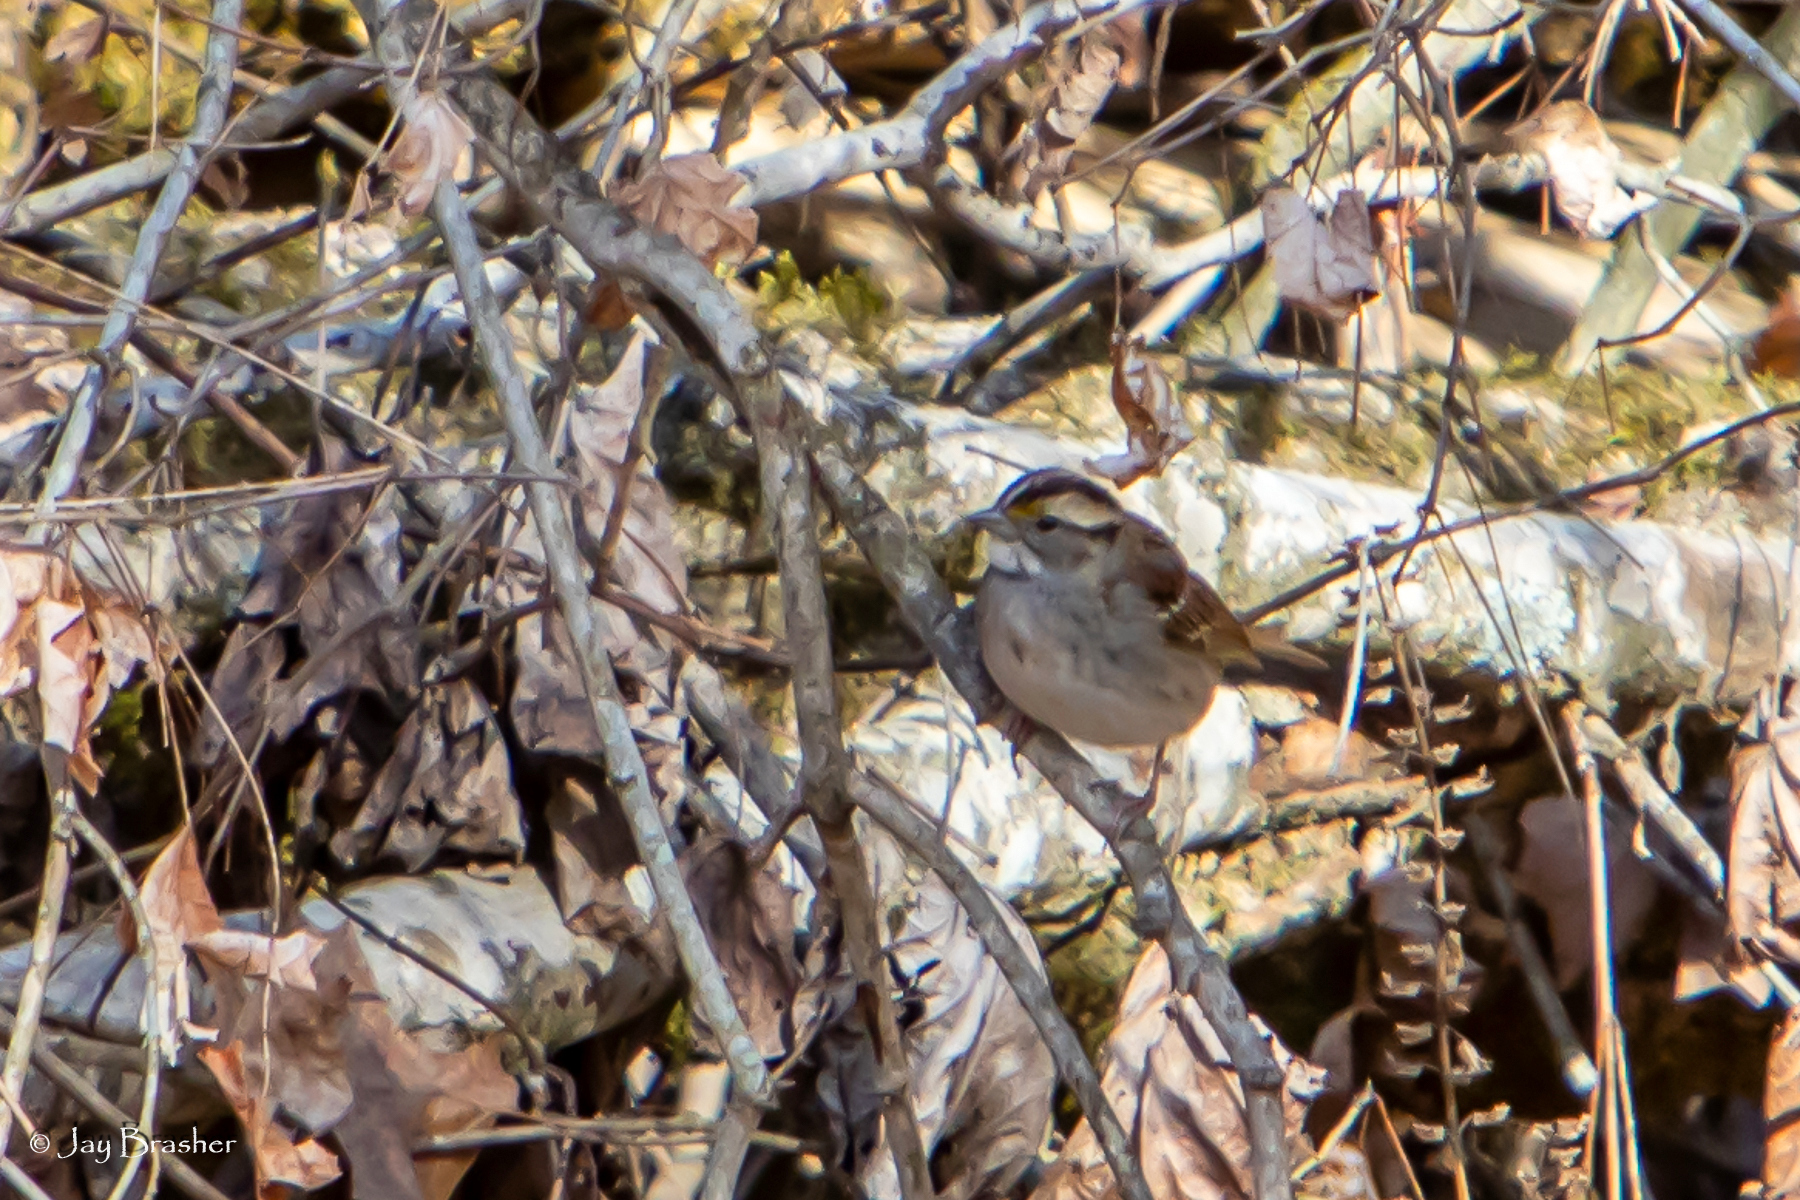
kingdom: Animalia
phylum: Chordata
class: Aves
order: Passeriformes
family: Passerellidae
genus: Zonotrichia
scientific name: Zonotrichia albicollis
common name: White-throated sparrow
